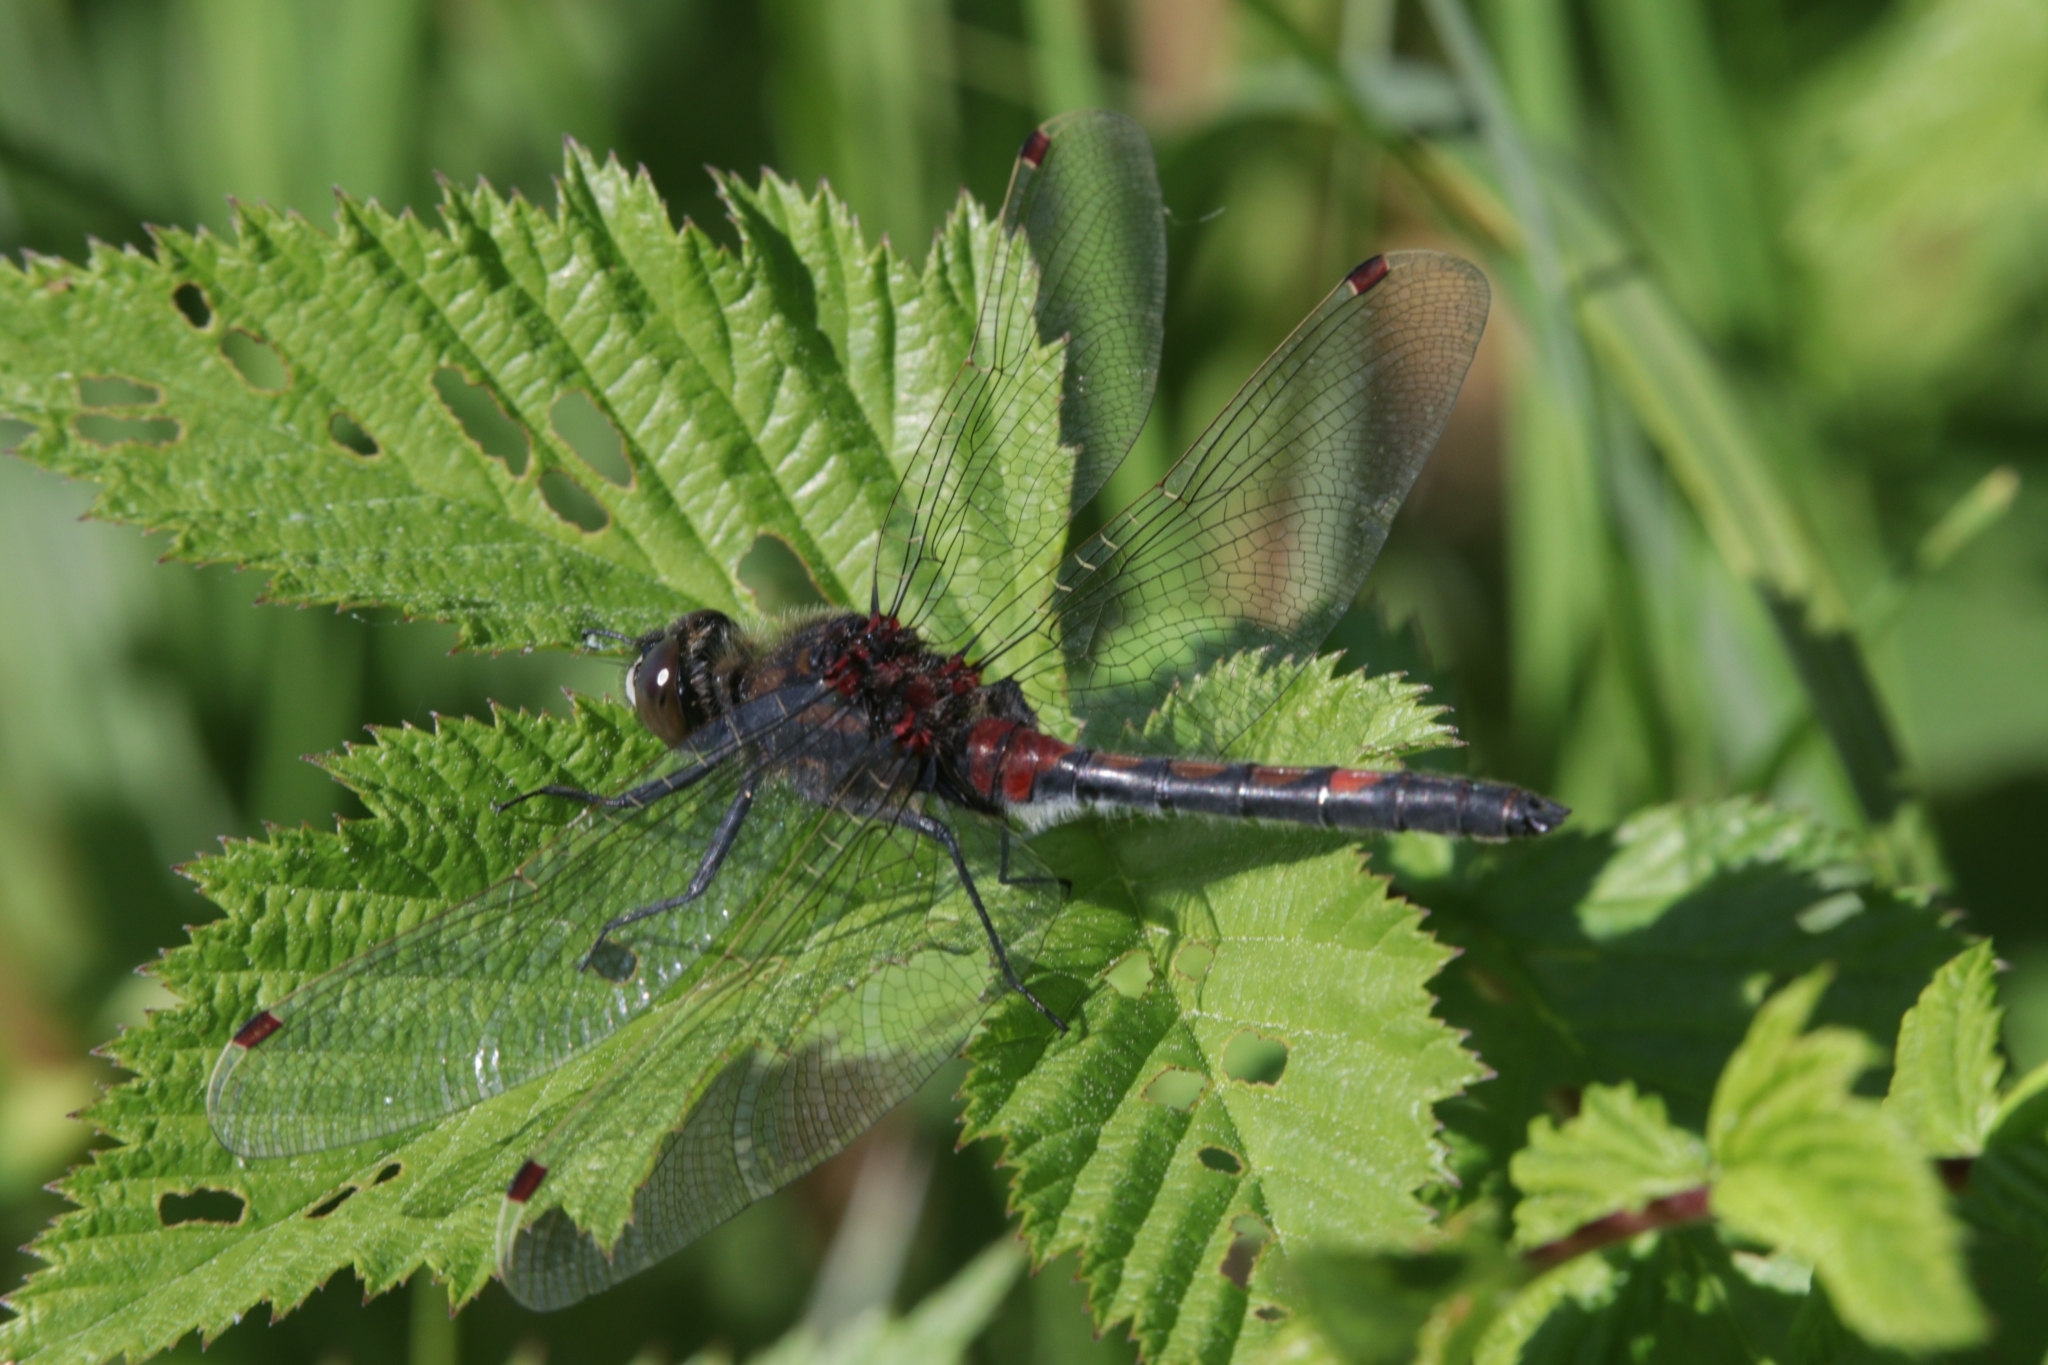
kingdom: Animalia
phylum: Arthropoda
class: Insecta
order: Odonata
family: Libellulidae
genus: Leucorrhinia
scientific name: Leucorrhinia rubicunda
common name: Ruby whiteface
